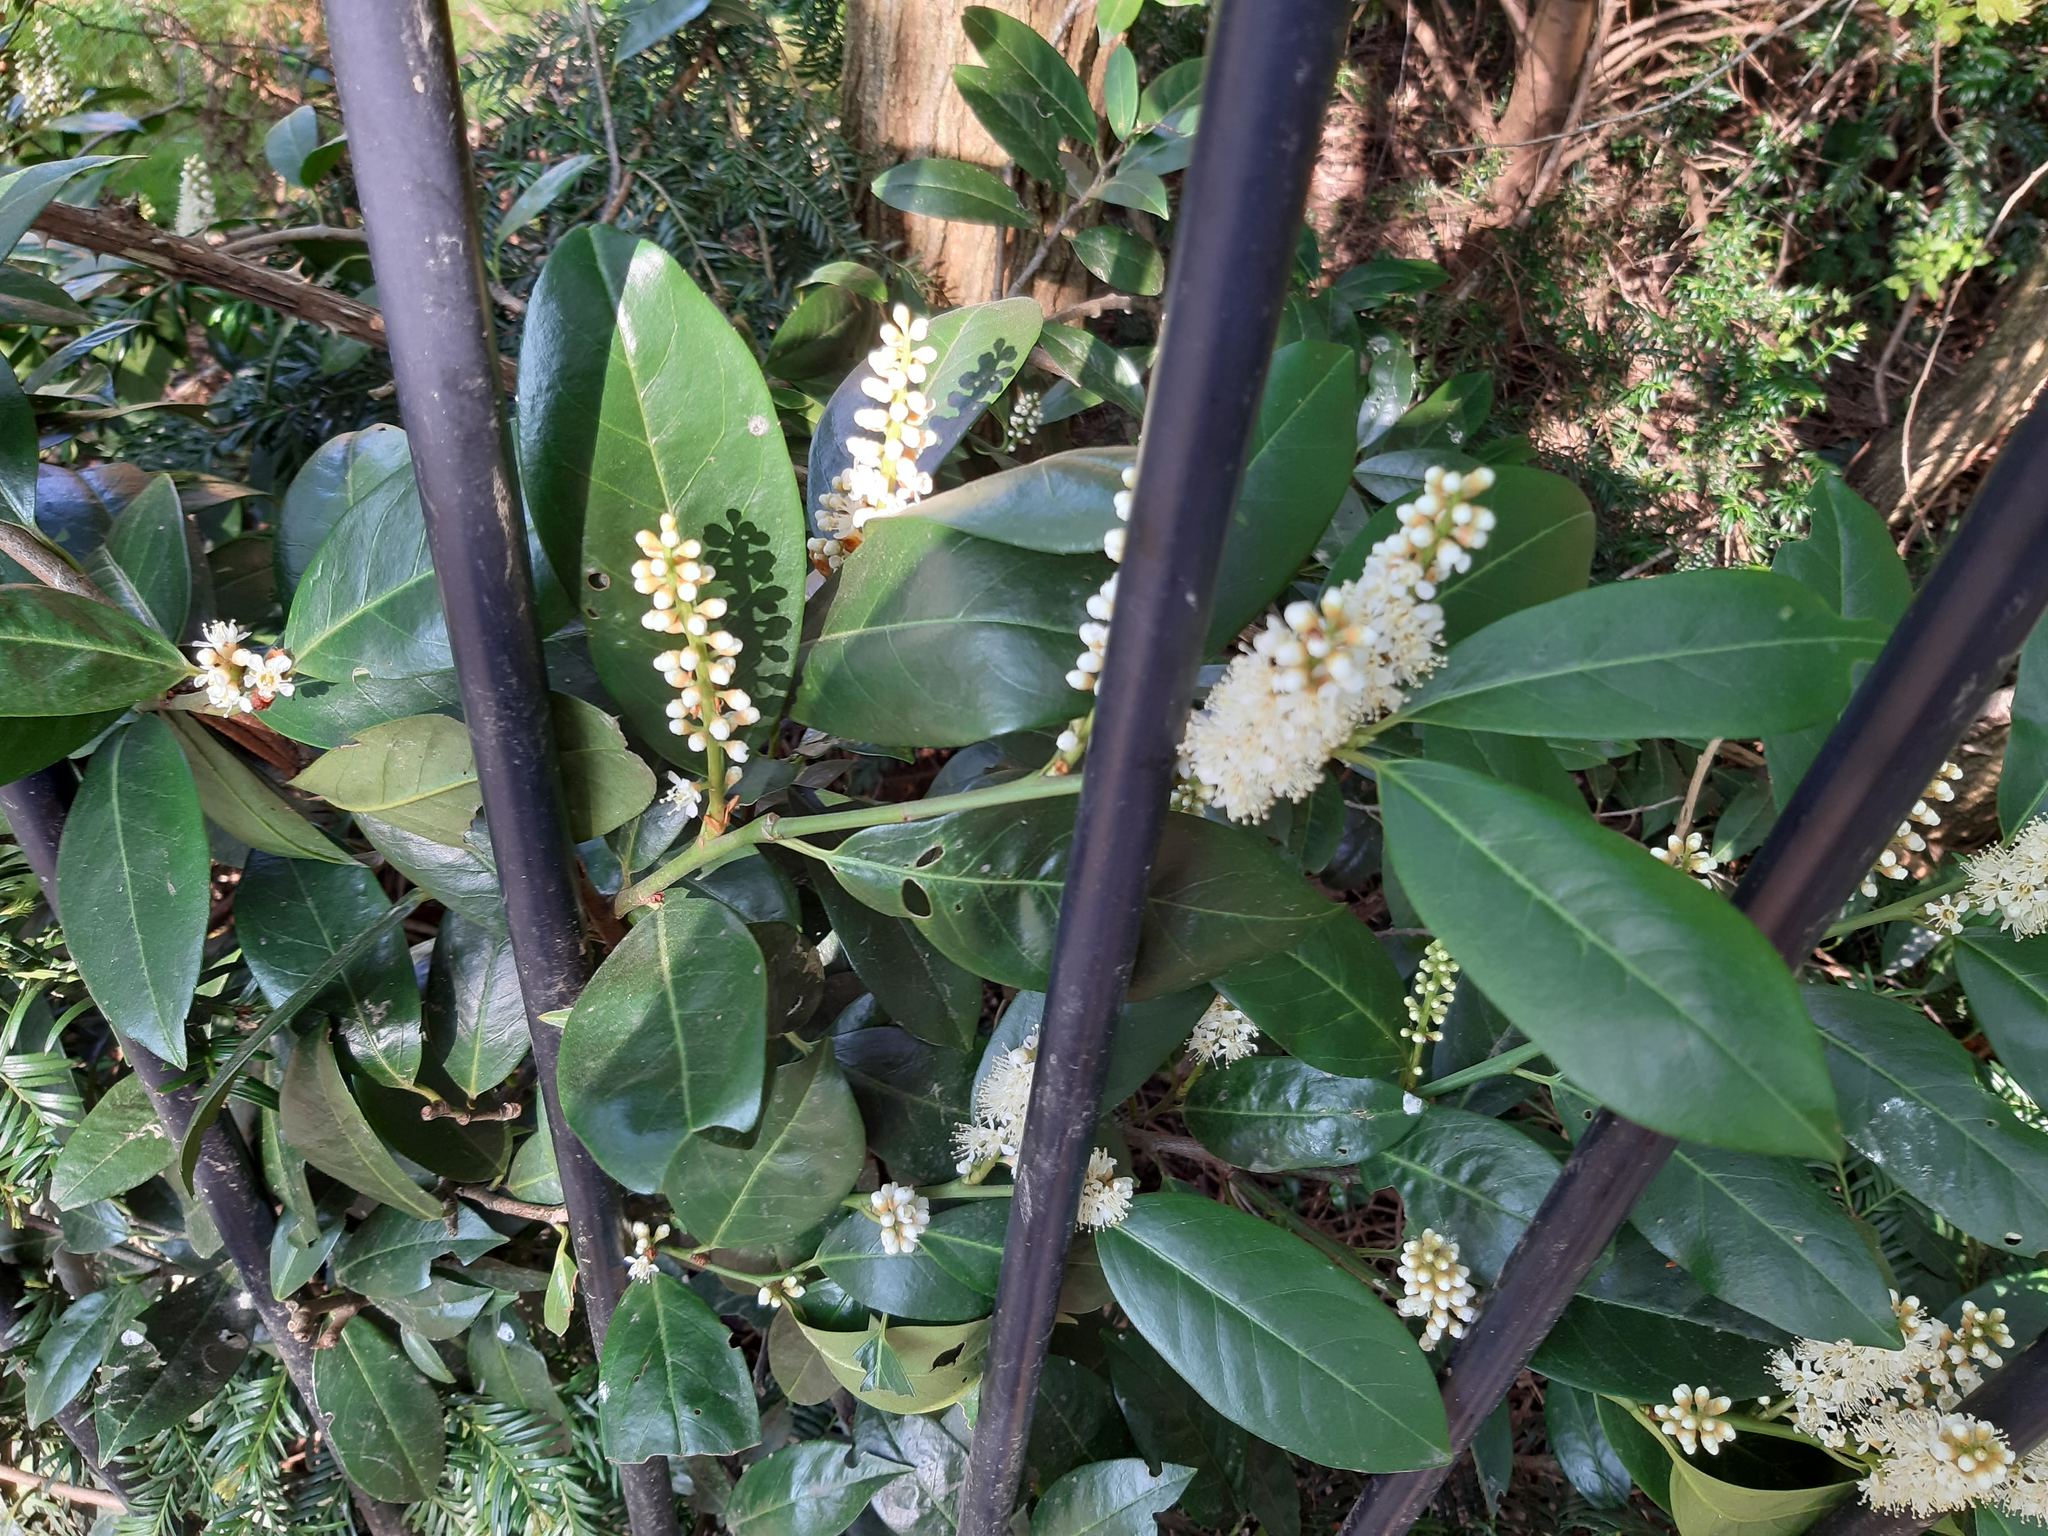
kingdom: Plantae
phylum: Tracheophyta
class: Magnoliopsida
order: Rosales
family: Rosaceae
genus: Prunus
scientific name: Prunus laurocerasus
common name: Cherry laurel
